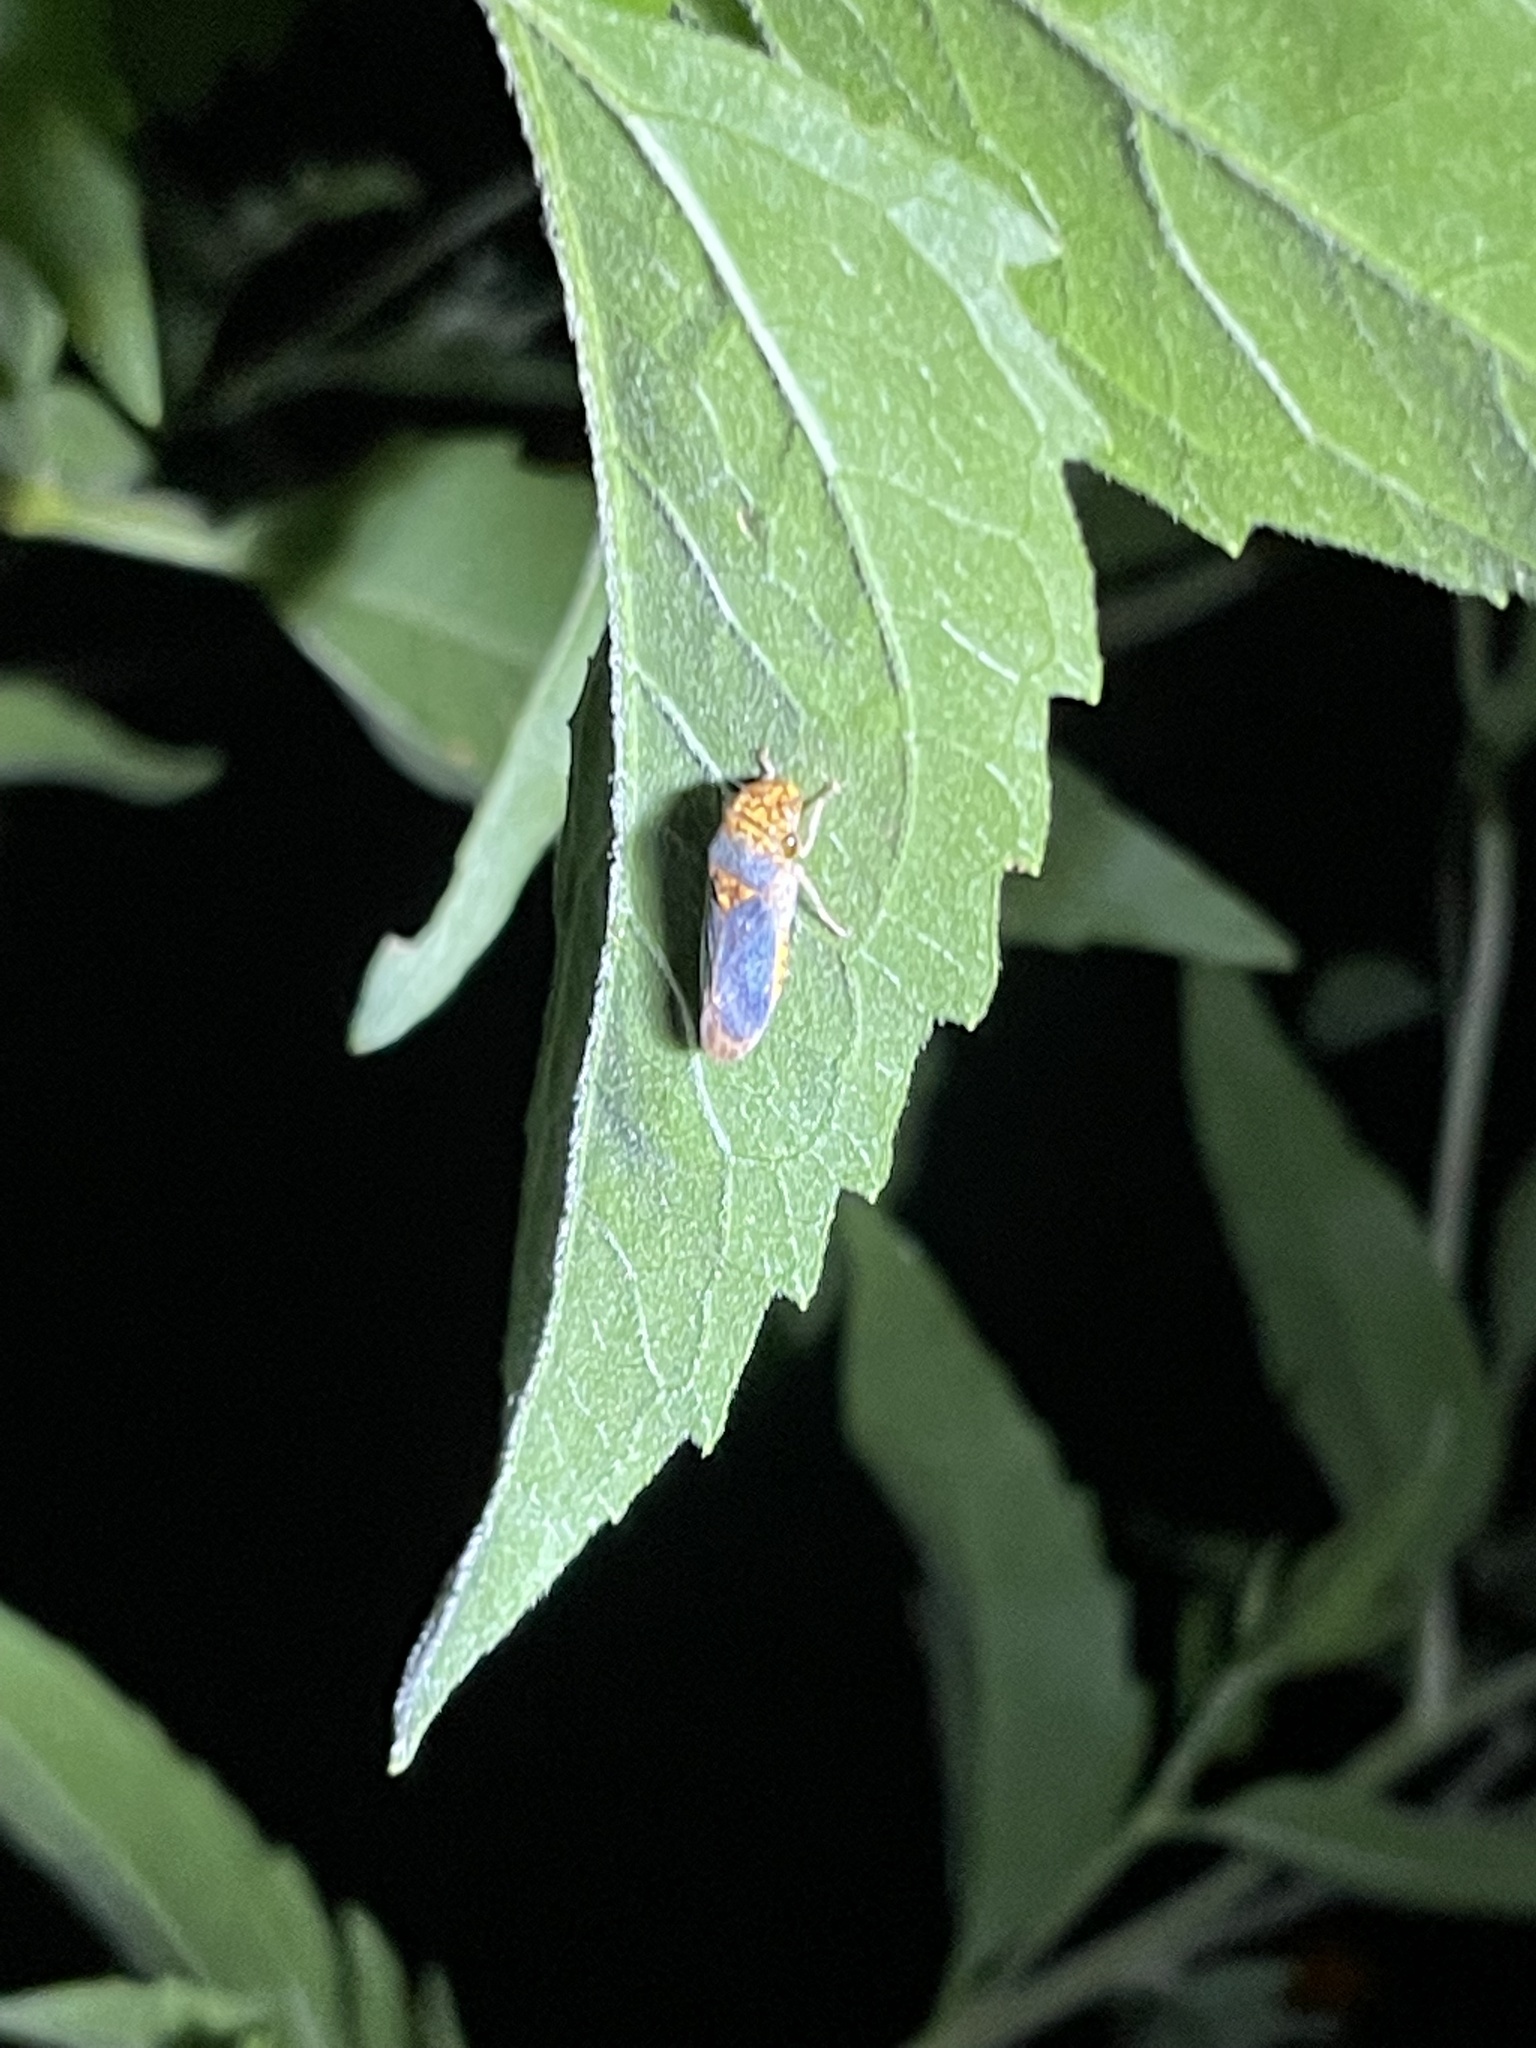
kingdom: Animalia
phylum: Arthropoda
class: Insecta
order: Hemiptera
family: Cicadellidae
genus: Oncometopia
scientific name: Oncometopia orbona
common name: Broad-headed sharpshooter
